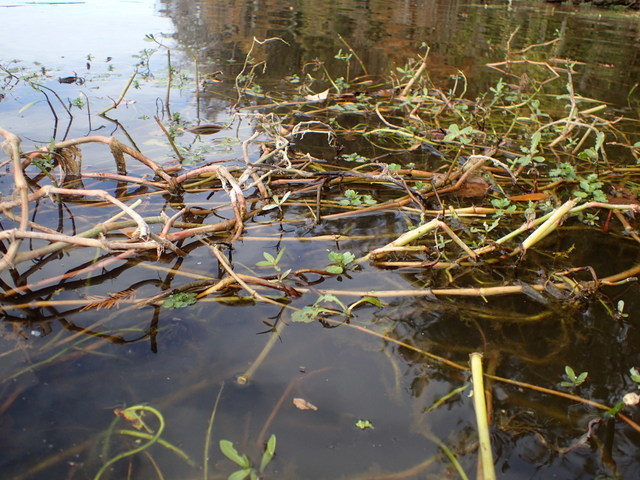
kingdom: Plantae
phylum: Tracheophyta
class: Magnoliopsida
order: Caryophyllales
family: Amaranthaceae
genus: Alternanthera
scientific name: Alternanthera philoxeroides
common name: Alligatorweed
